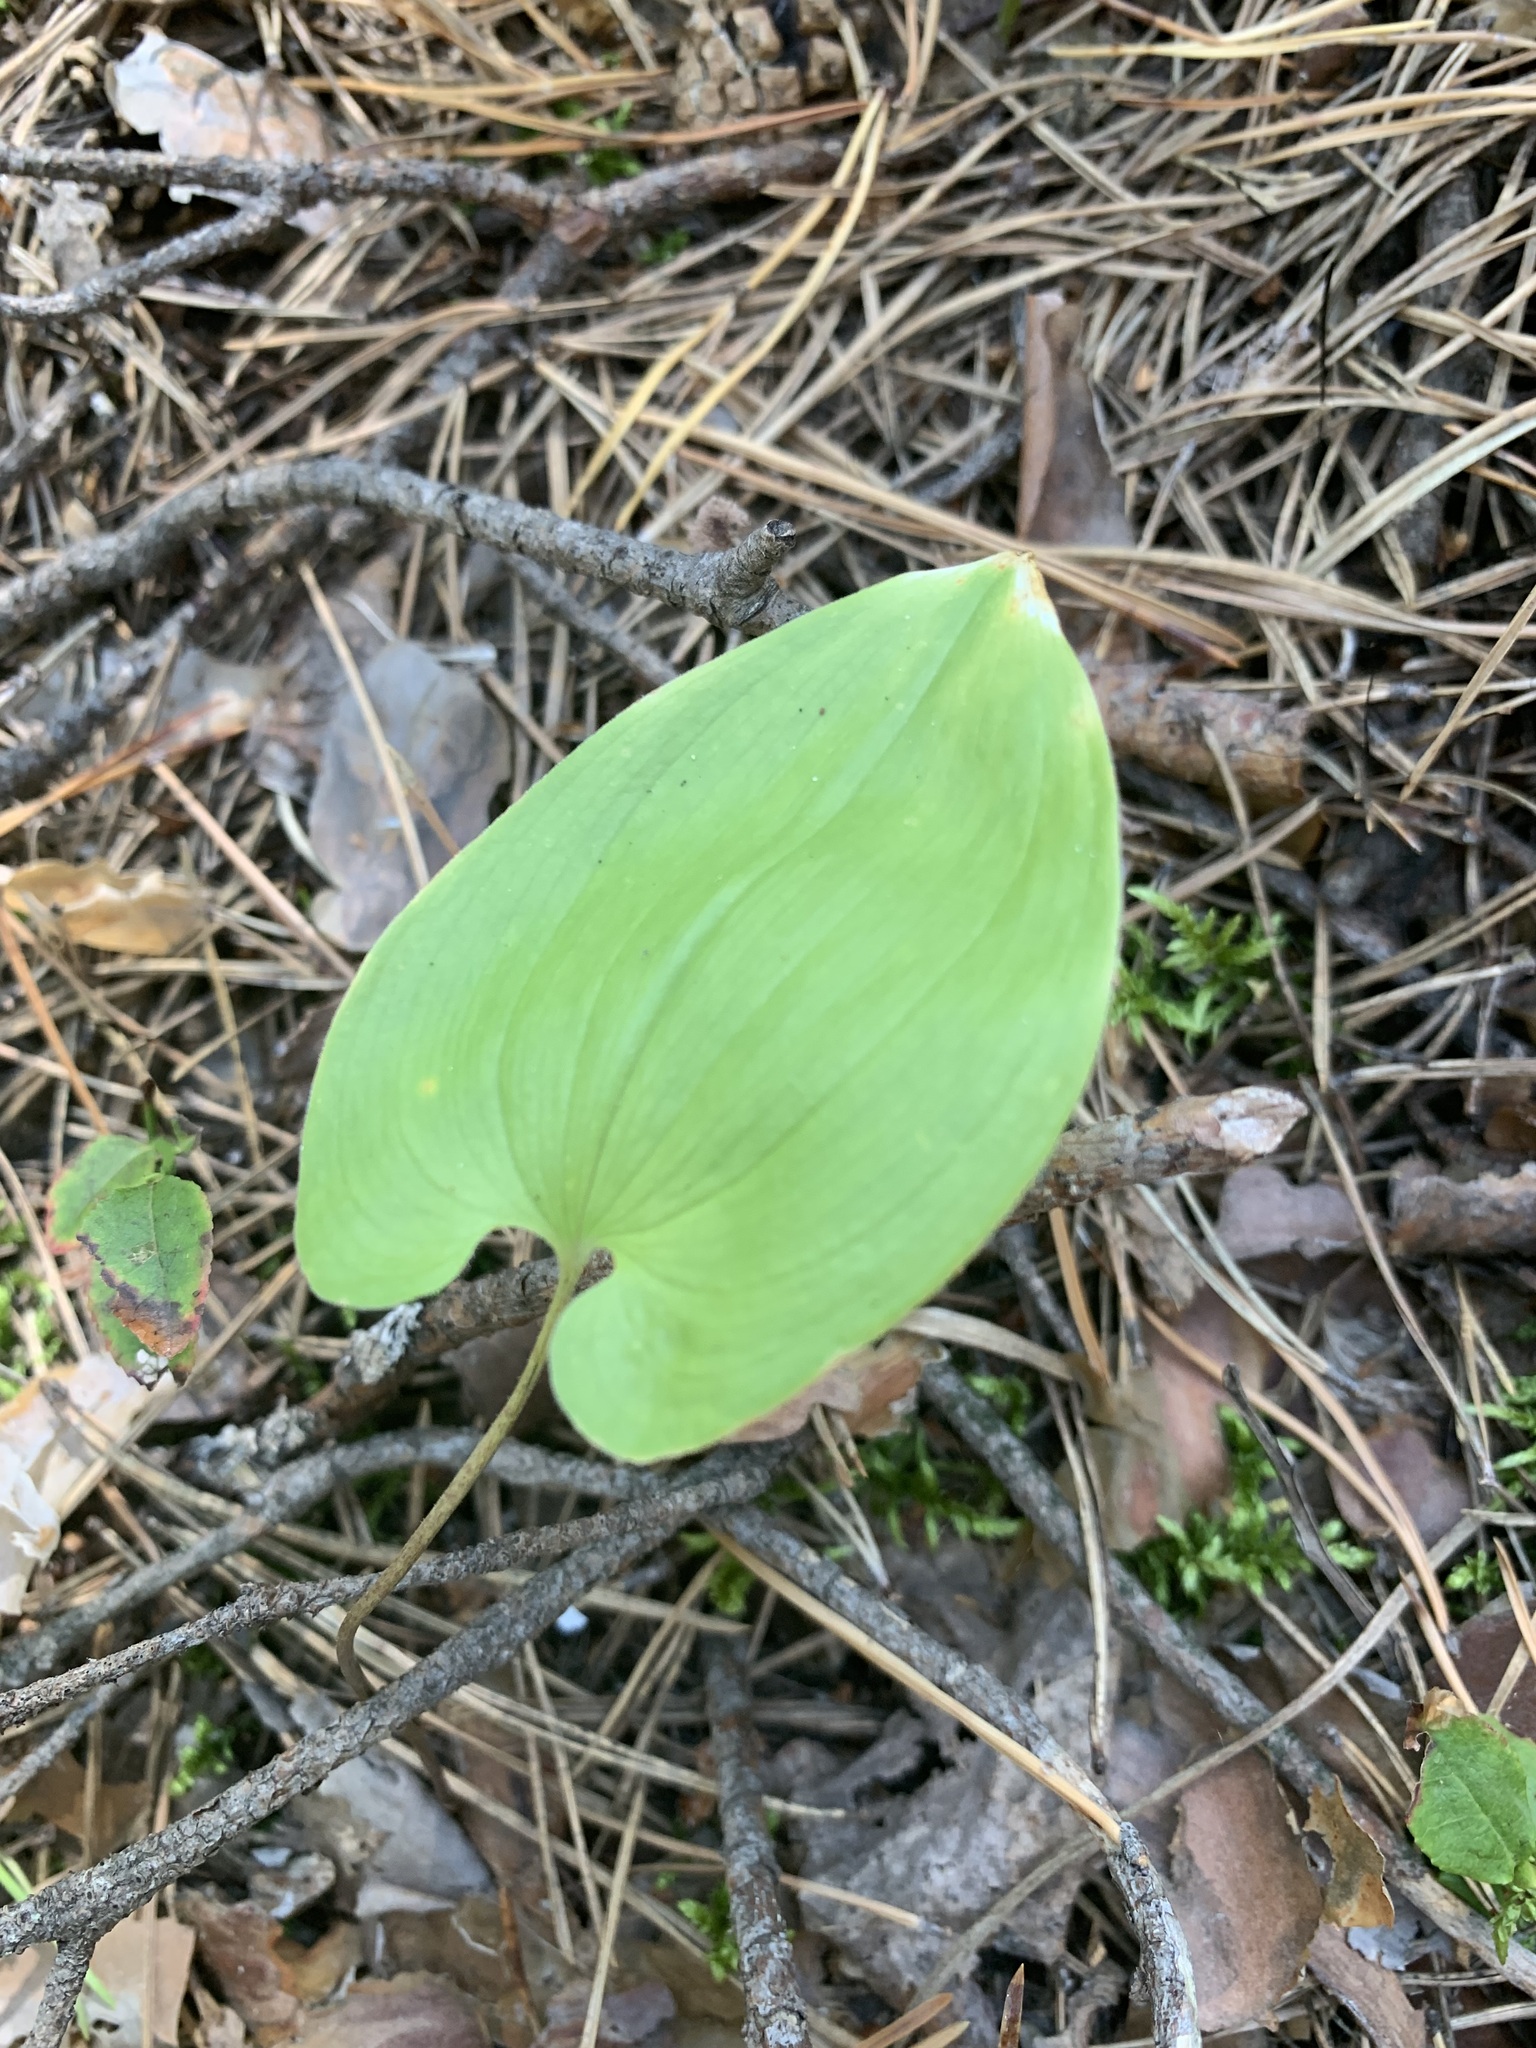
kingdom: Plantae
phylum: Tracheophyta
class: Liliopsida
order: Asparagales
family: Asparagaceae
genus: Maianthemum
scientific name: Maianthemum bifolium
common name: May lily
